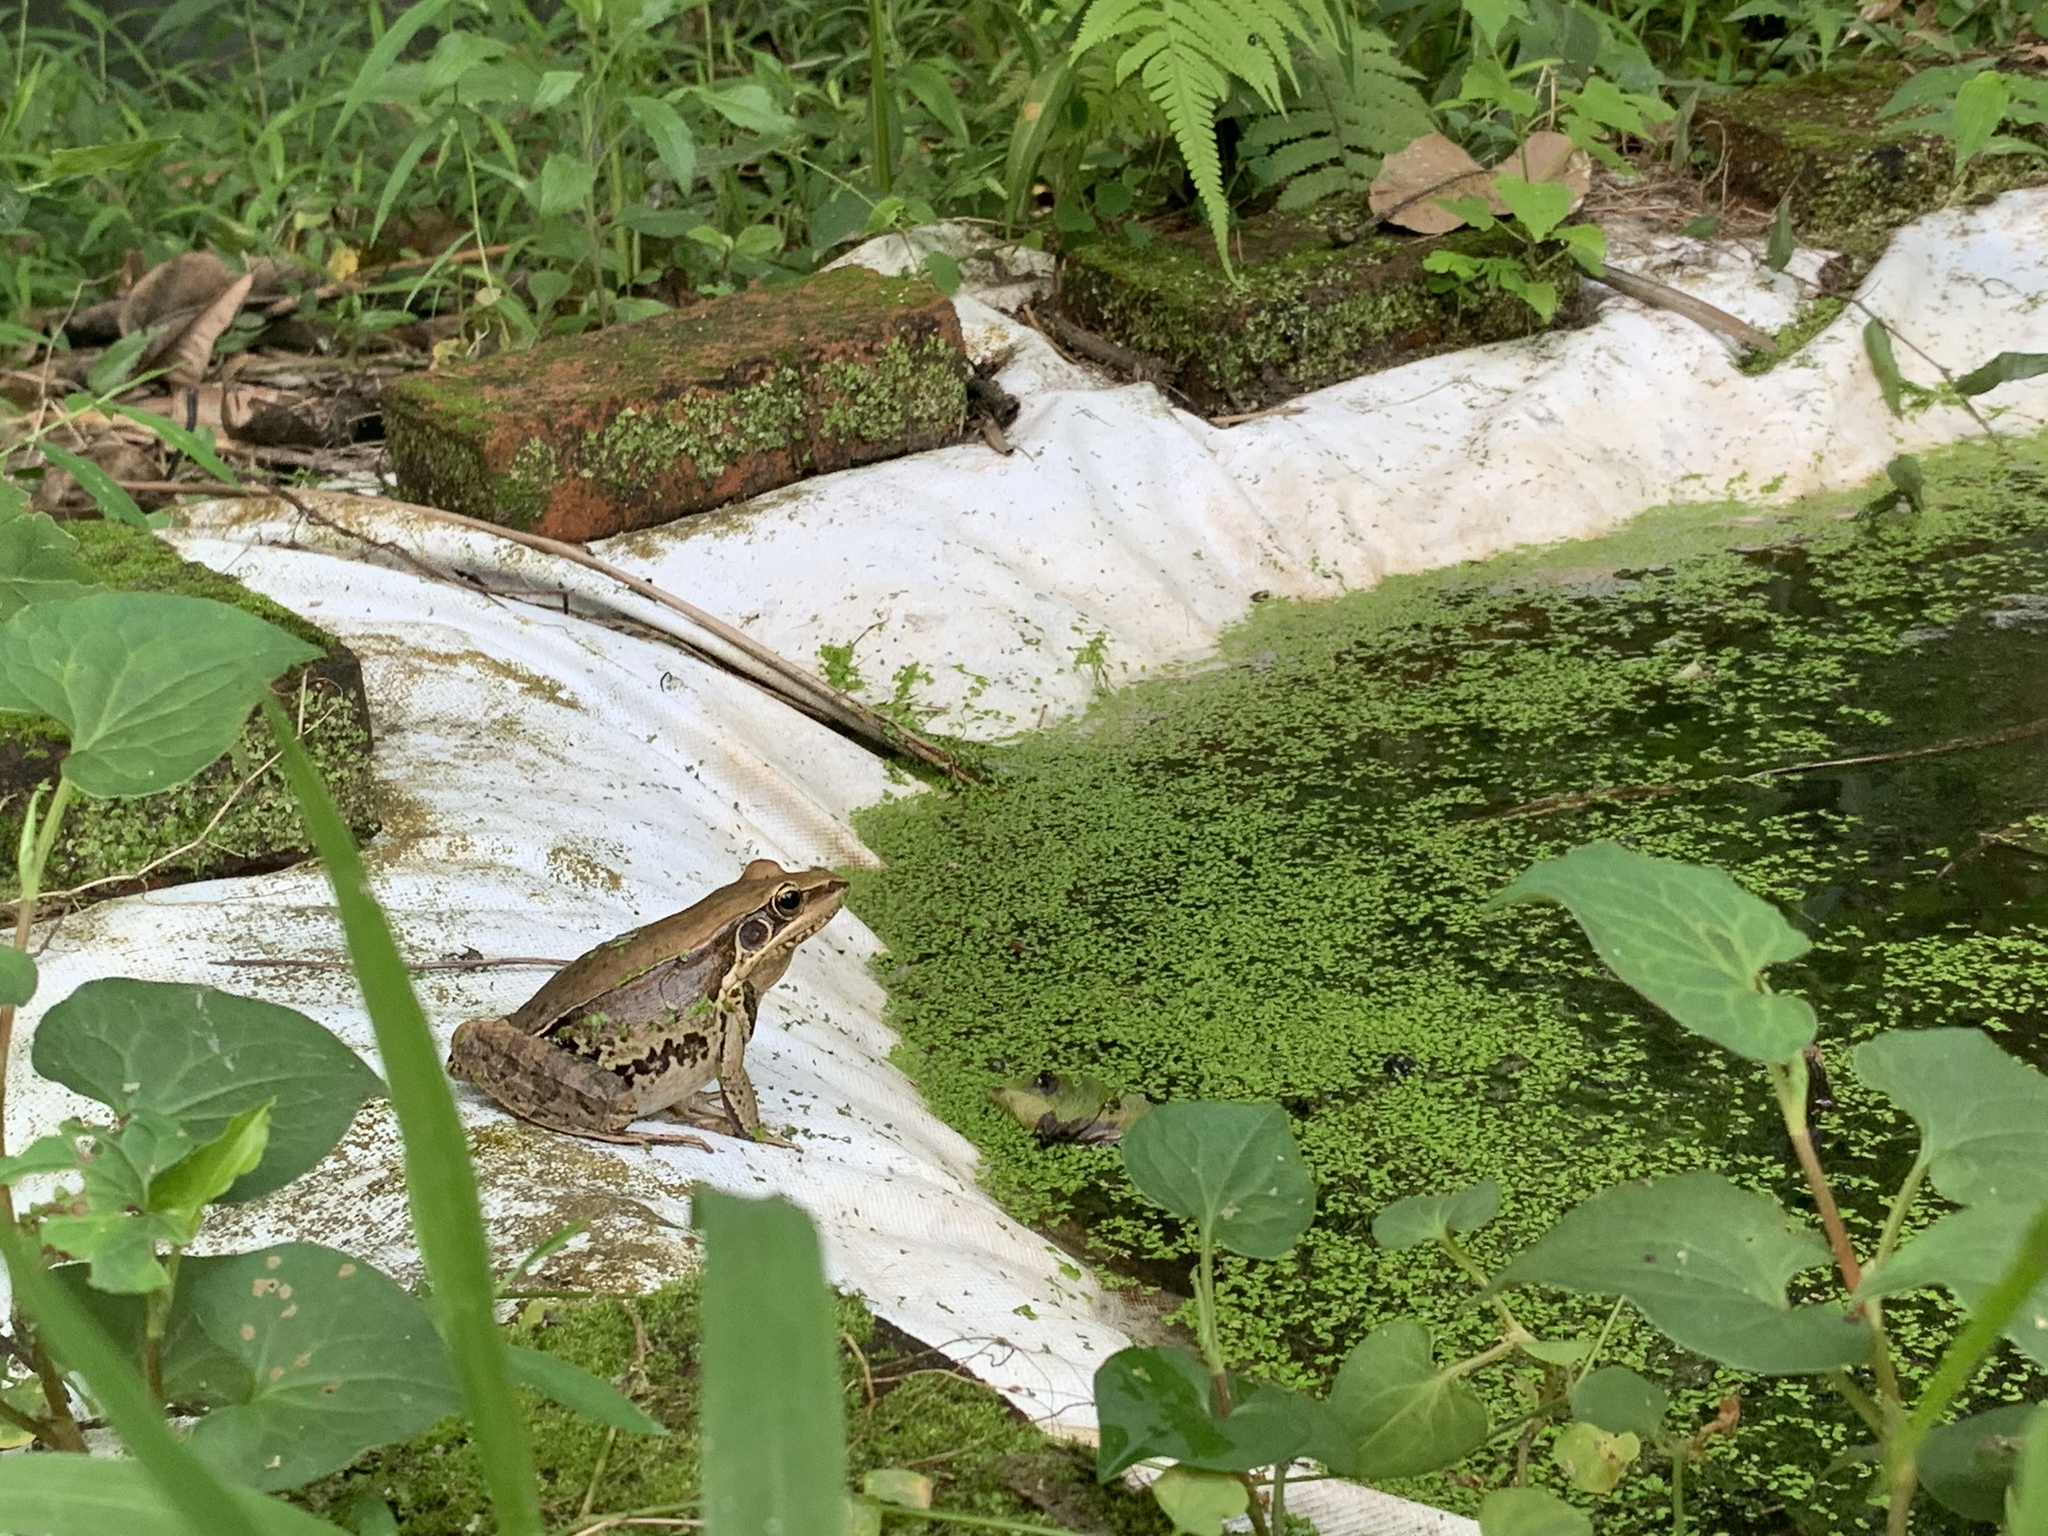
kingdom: Animalia
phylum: Chordata
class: Amphibia
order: Anura
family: Ranidae
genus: Sylvirana
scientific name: Sylvirana guentheri
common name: Guenther's amoy frog
